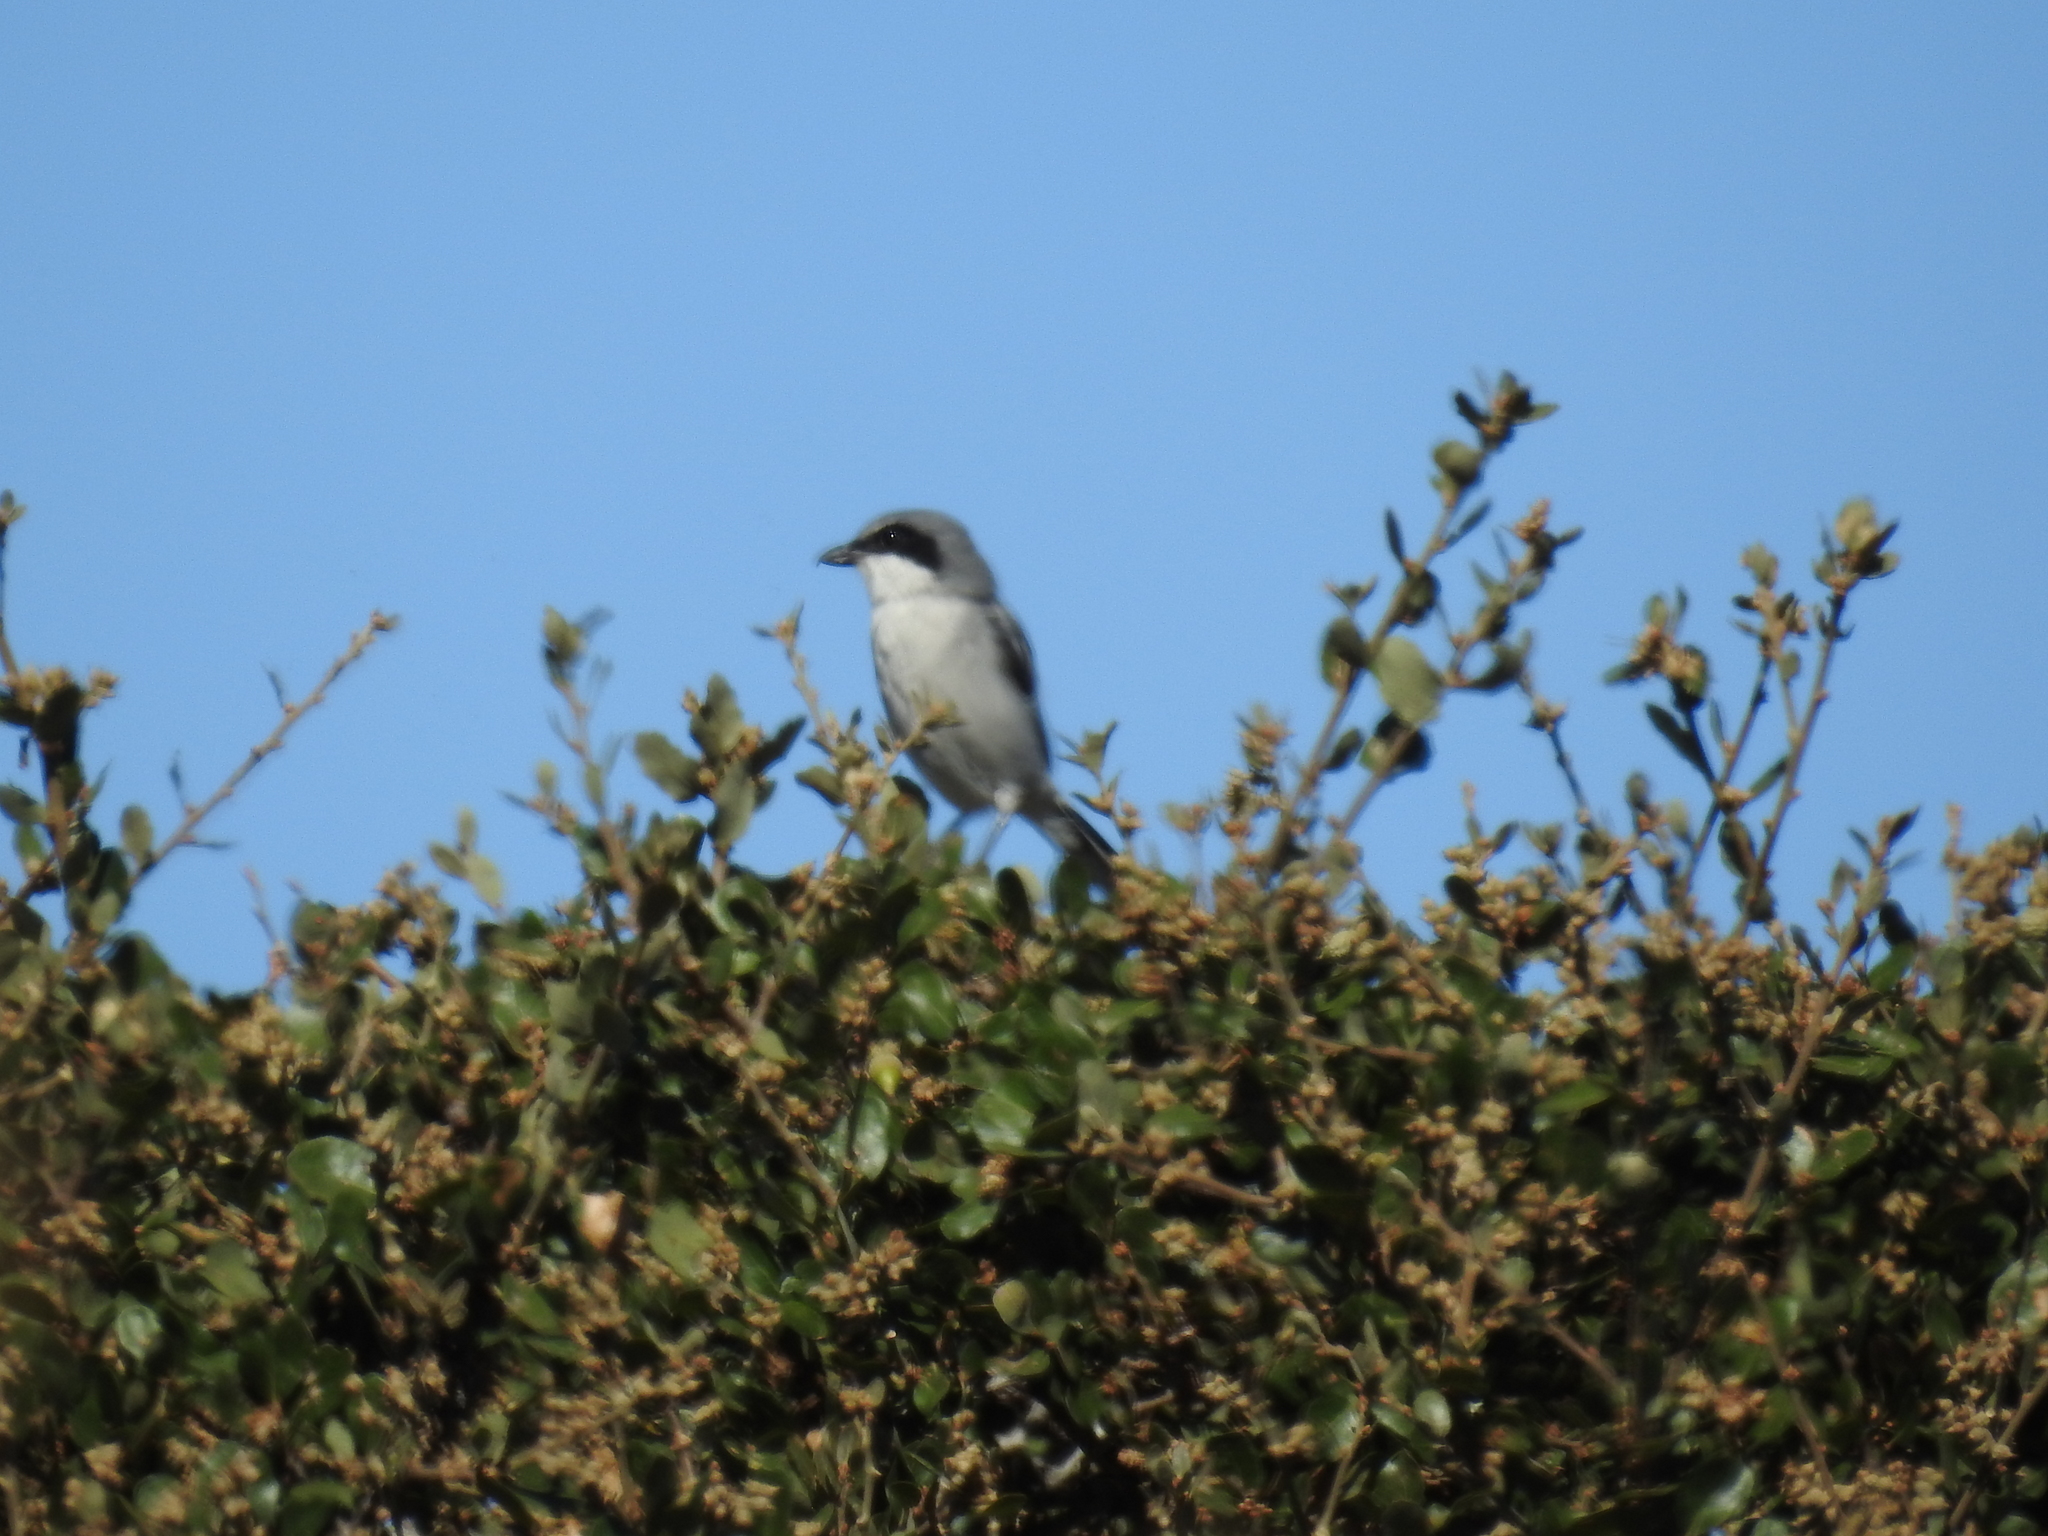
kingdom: Animalia
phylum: Chordata
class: Aves
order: Passeriformes
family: Laniidae
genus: Lanius
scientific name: Lanius ludovicianus
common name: Loggerhead shrike
